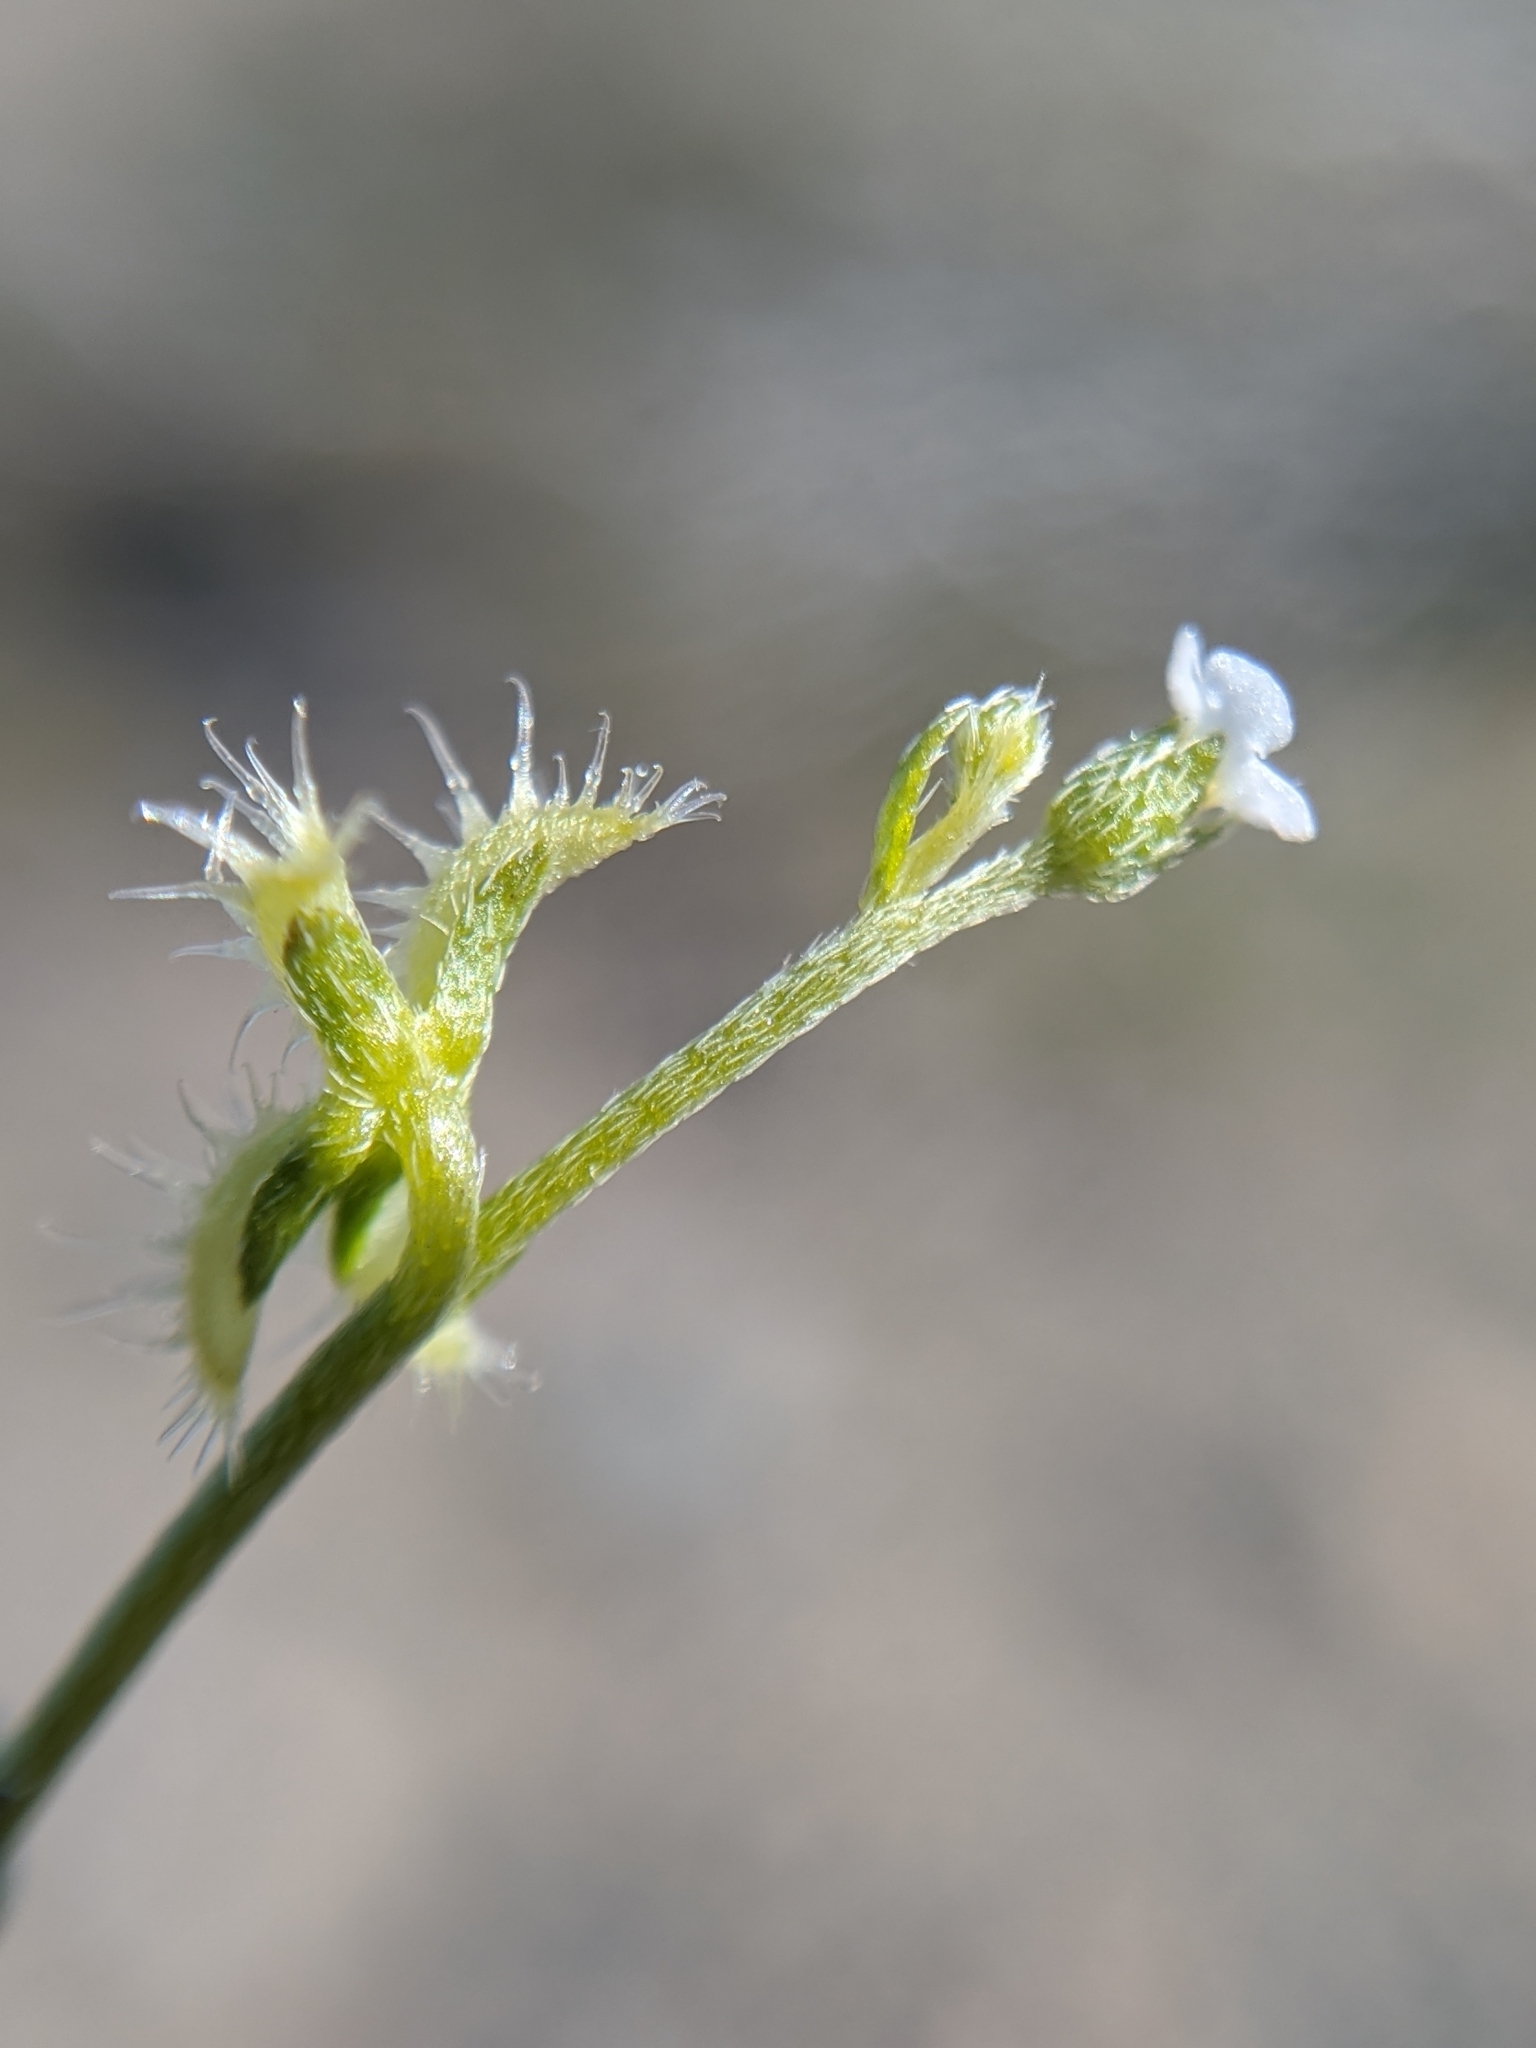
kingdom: Plantae
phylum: Tracheophyta
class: Magnoliopsida
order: Boraginales
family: Boraginaceae
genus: Pectocarya
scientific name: Pectocarya recurvata
